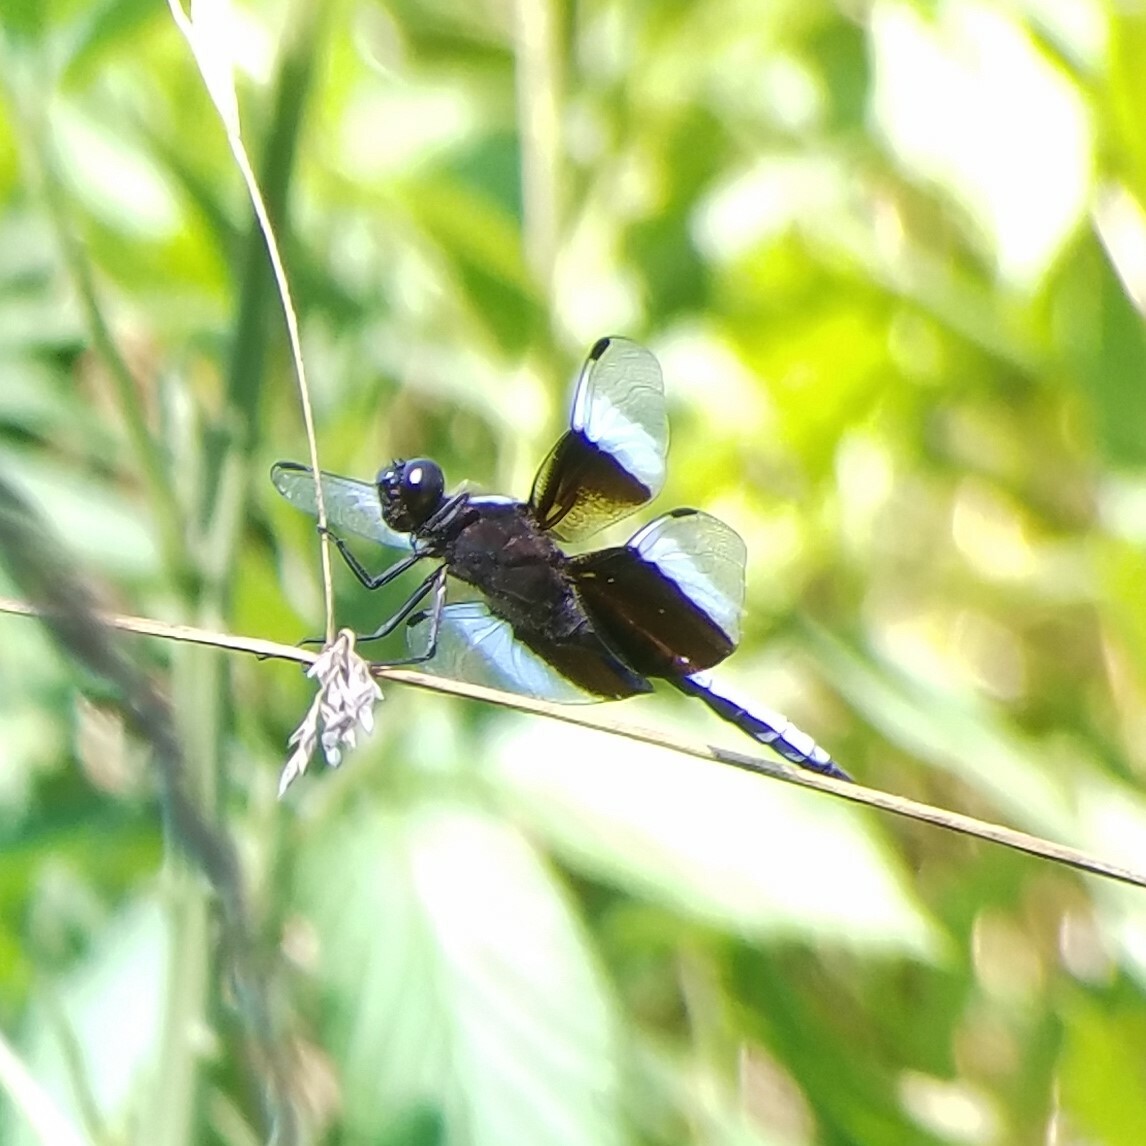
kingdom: Animalia
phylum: Arthropoda
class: Insecta
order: Odonata
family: Libellulidae
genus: Libellula
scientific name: Libellula luctuosa
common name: Widow skimmer
